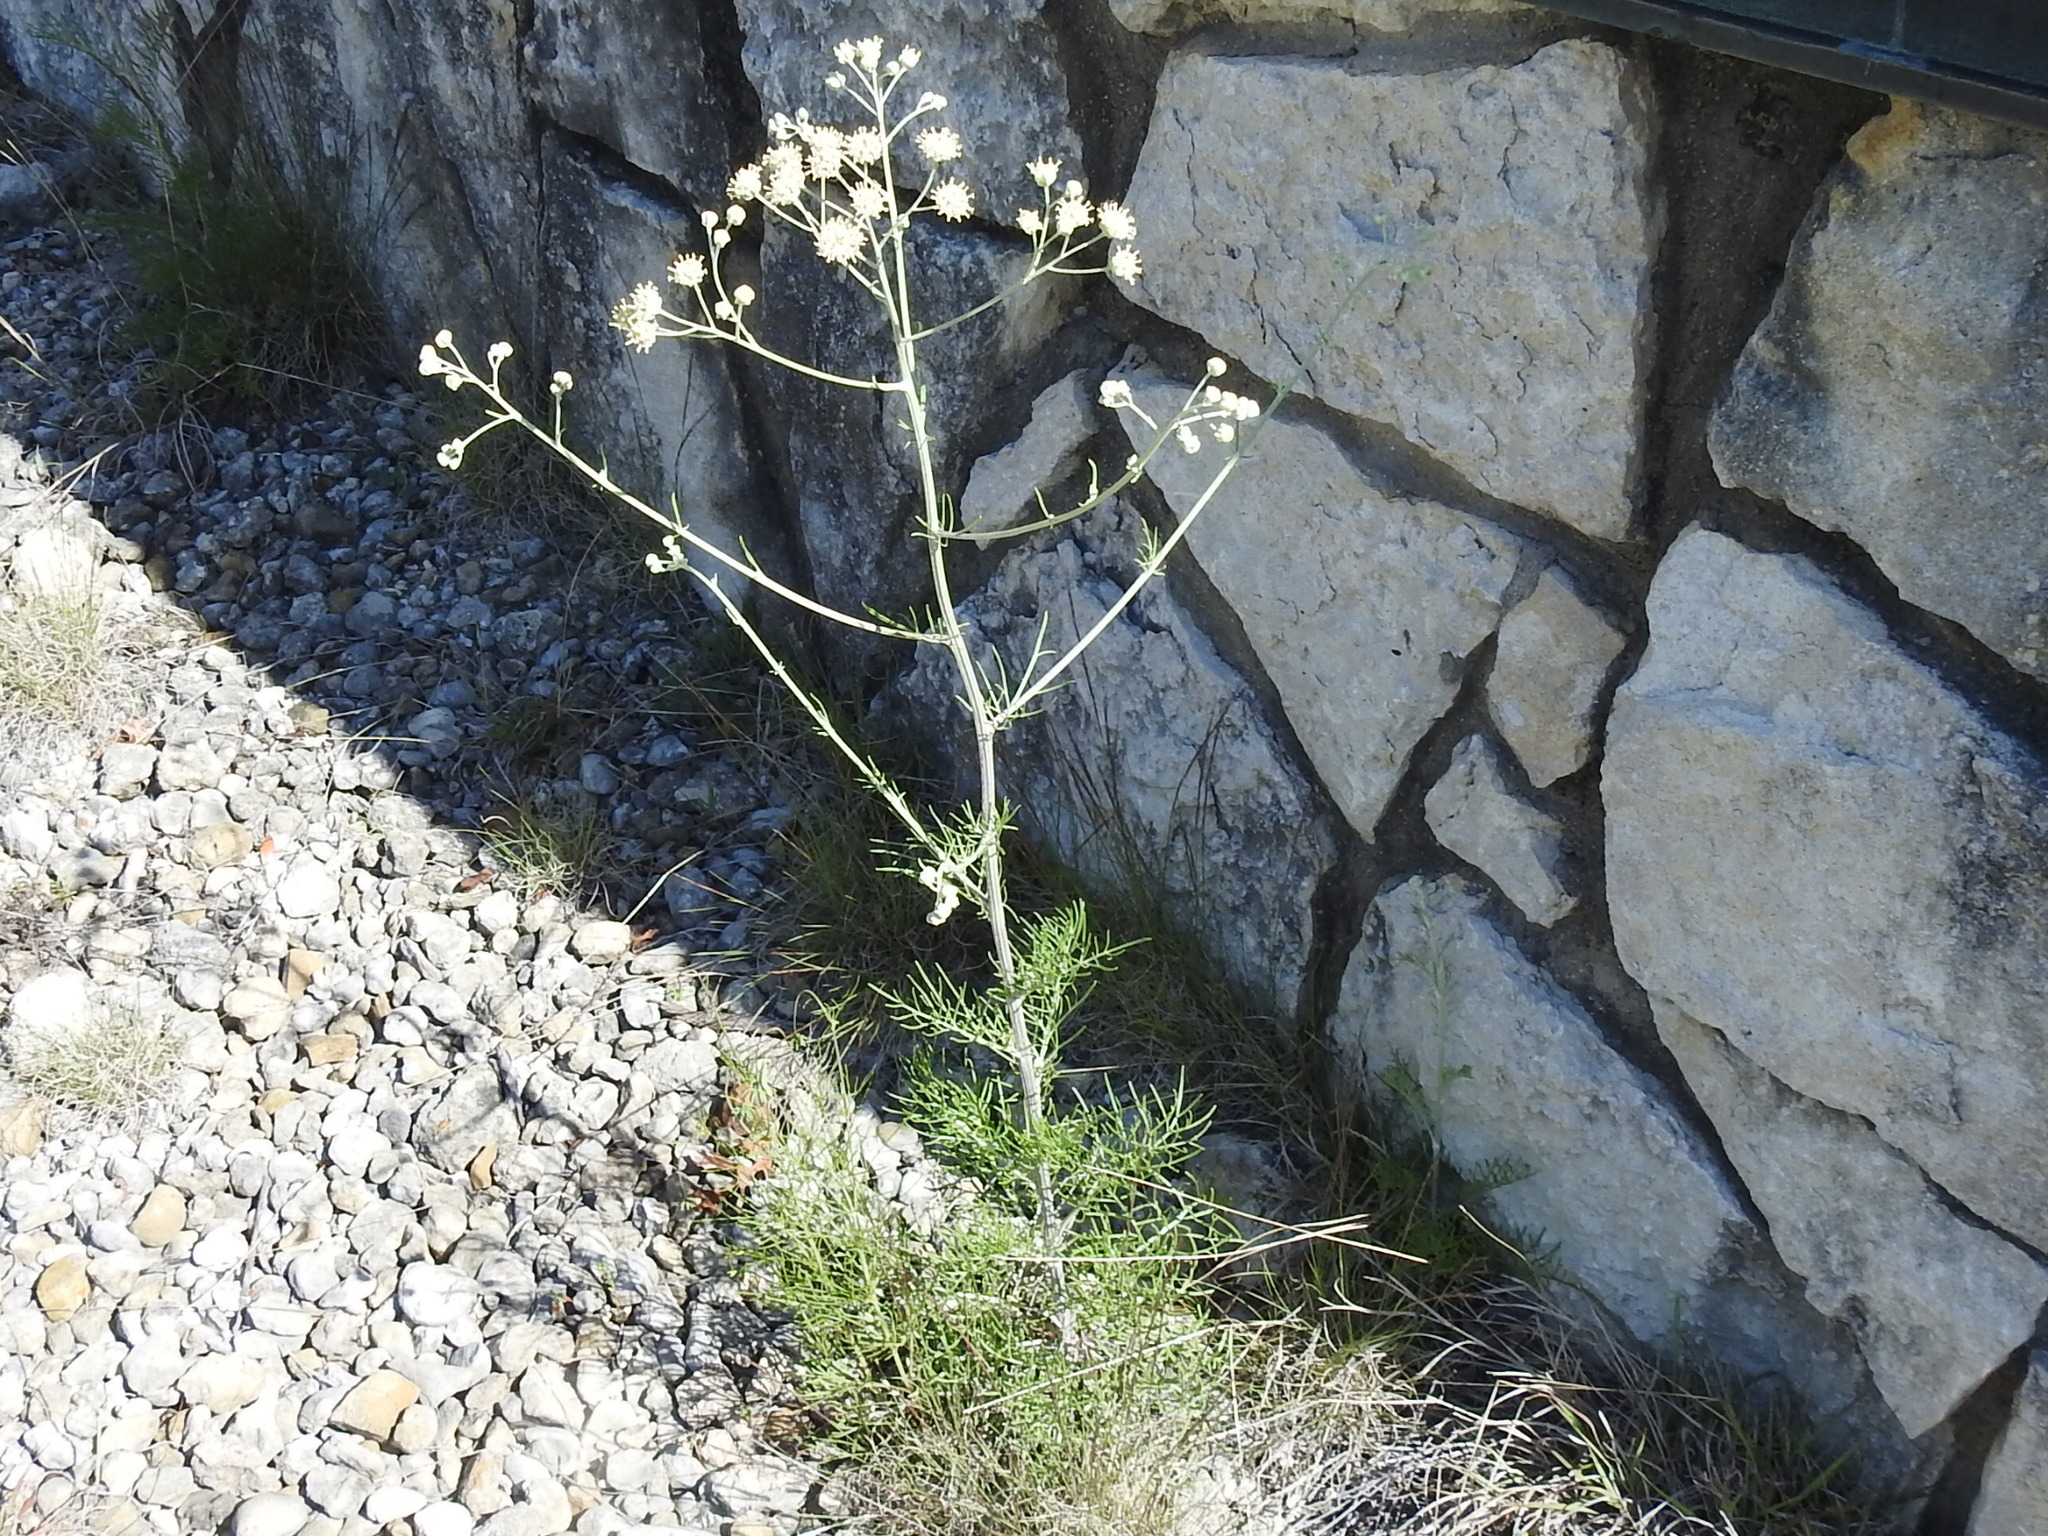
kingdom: Plantae
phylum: Tracheophyta
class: Magnoliopsida
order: Asterales
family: Asteraceae
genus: Hymenopappus
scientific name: Hymenopappus scabiosaeus
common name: Carolina woollywhite
